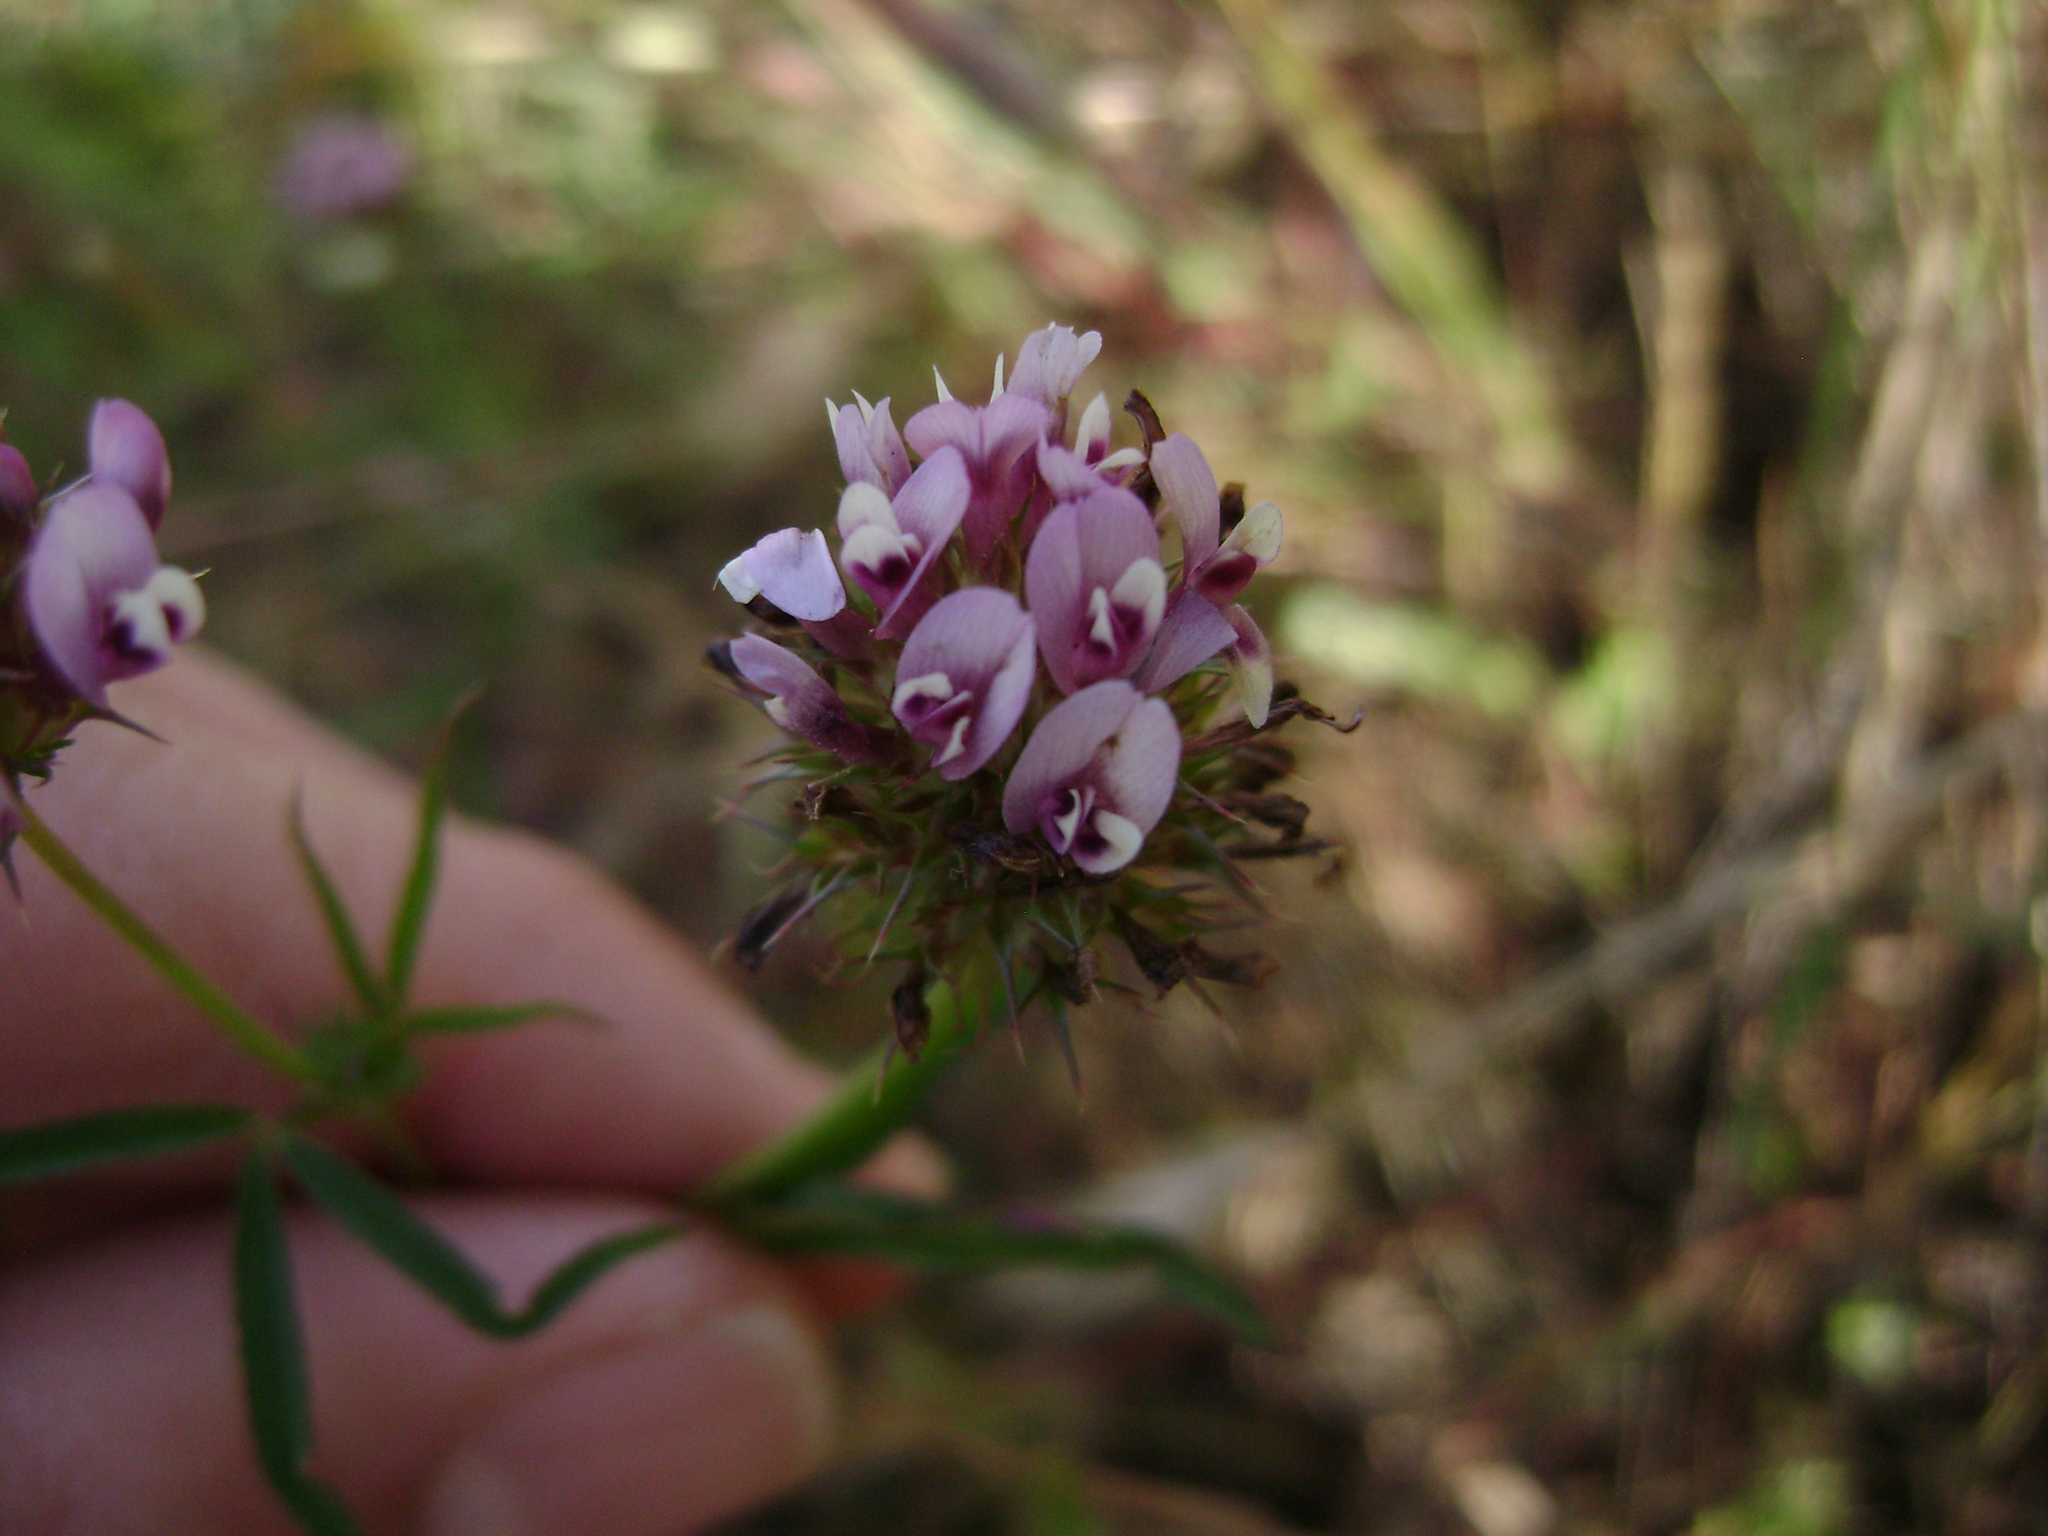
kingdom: Plantae
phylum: Tracheophyta
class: Magnoliopsida
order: Fabales
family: Fabaceae
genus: Trifolium
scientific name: Trifolium willdenovii
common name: Tomcat clover
